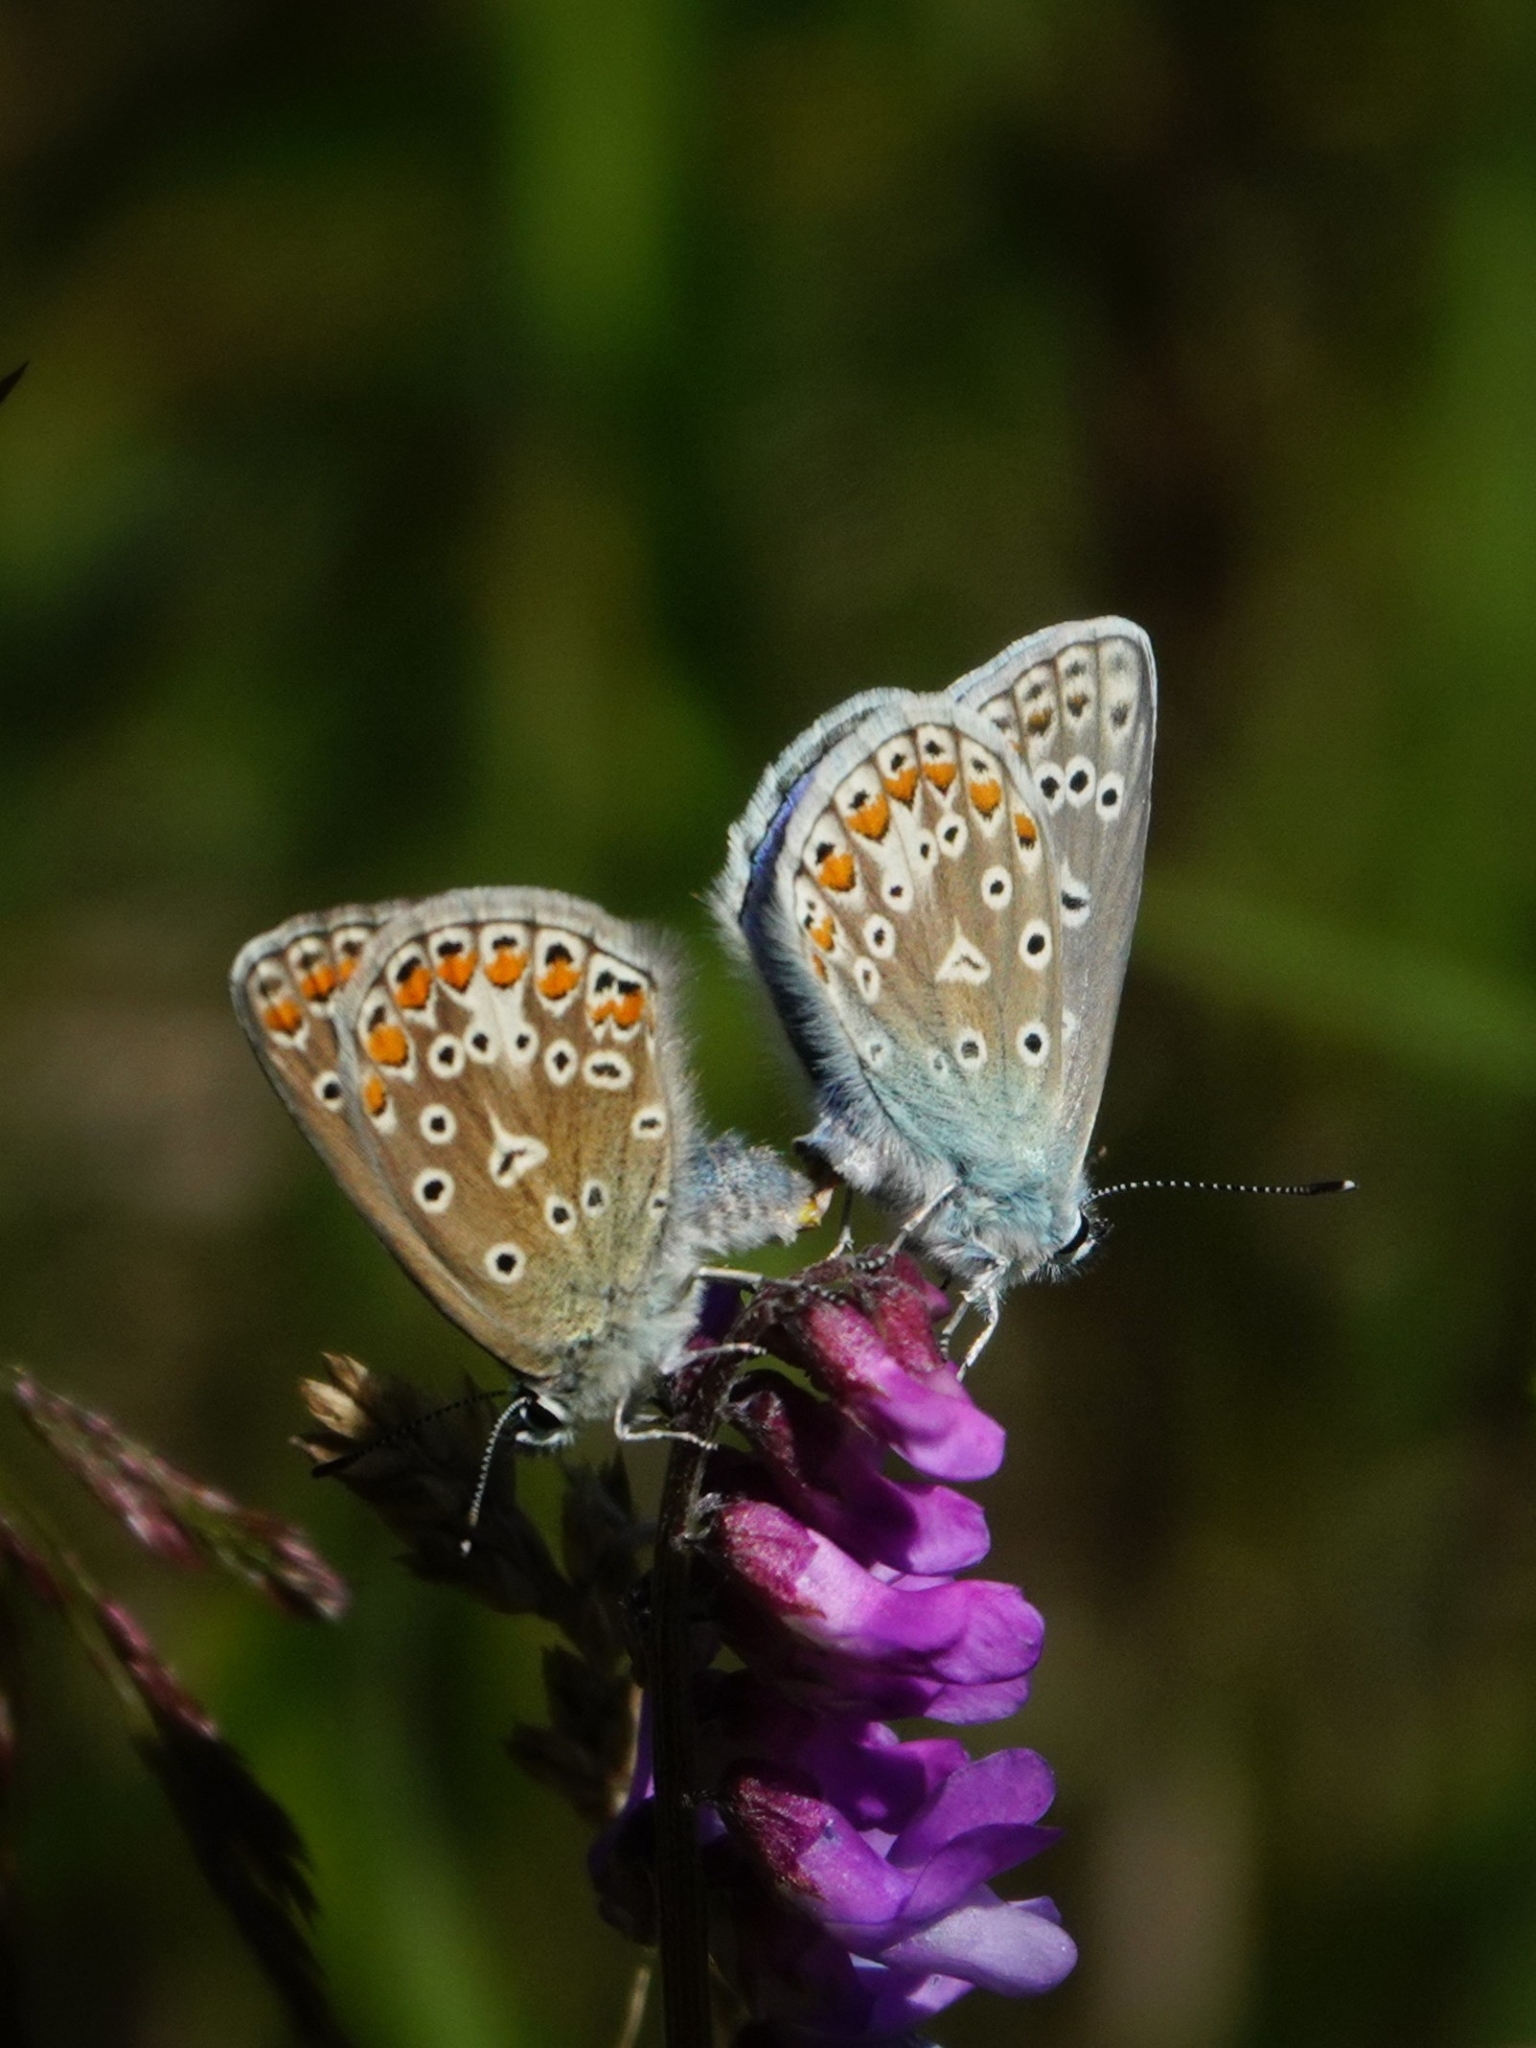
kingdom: Animalia
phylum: Arthropoda
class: Insecta
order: Lepidoptera
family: Lycaenidae
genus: Polyommatus
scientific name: Polyommatus icarus
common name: Common blue
